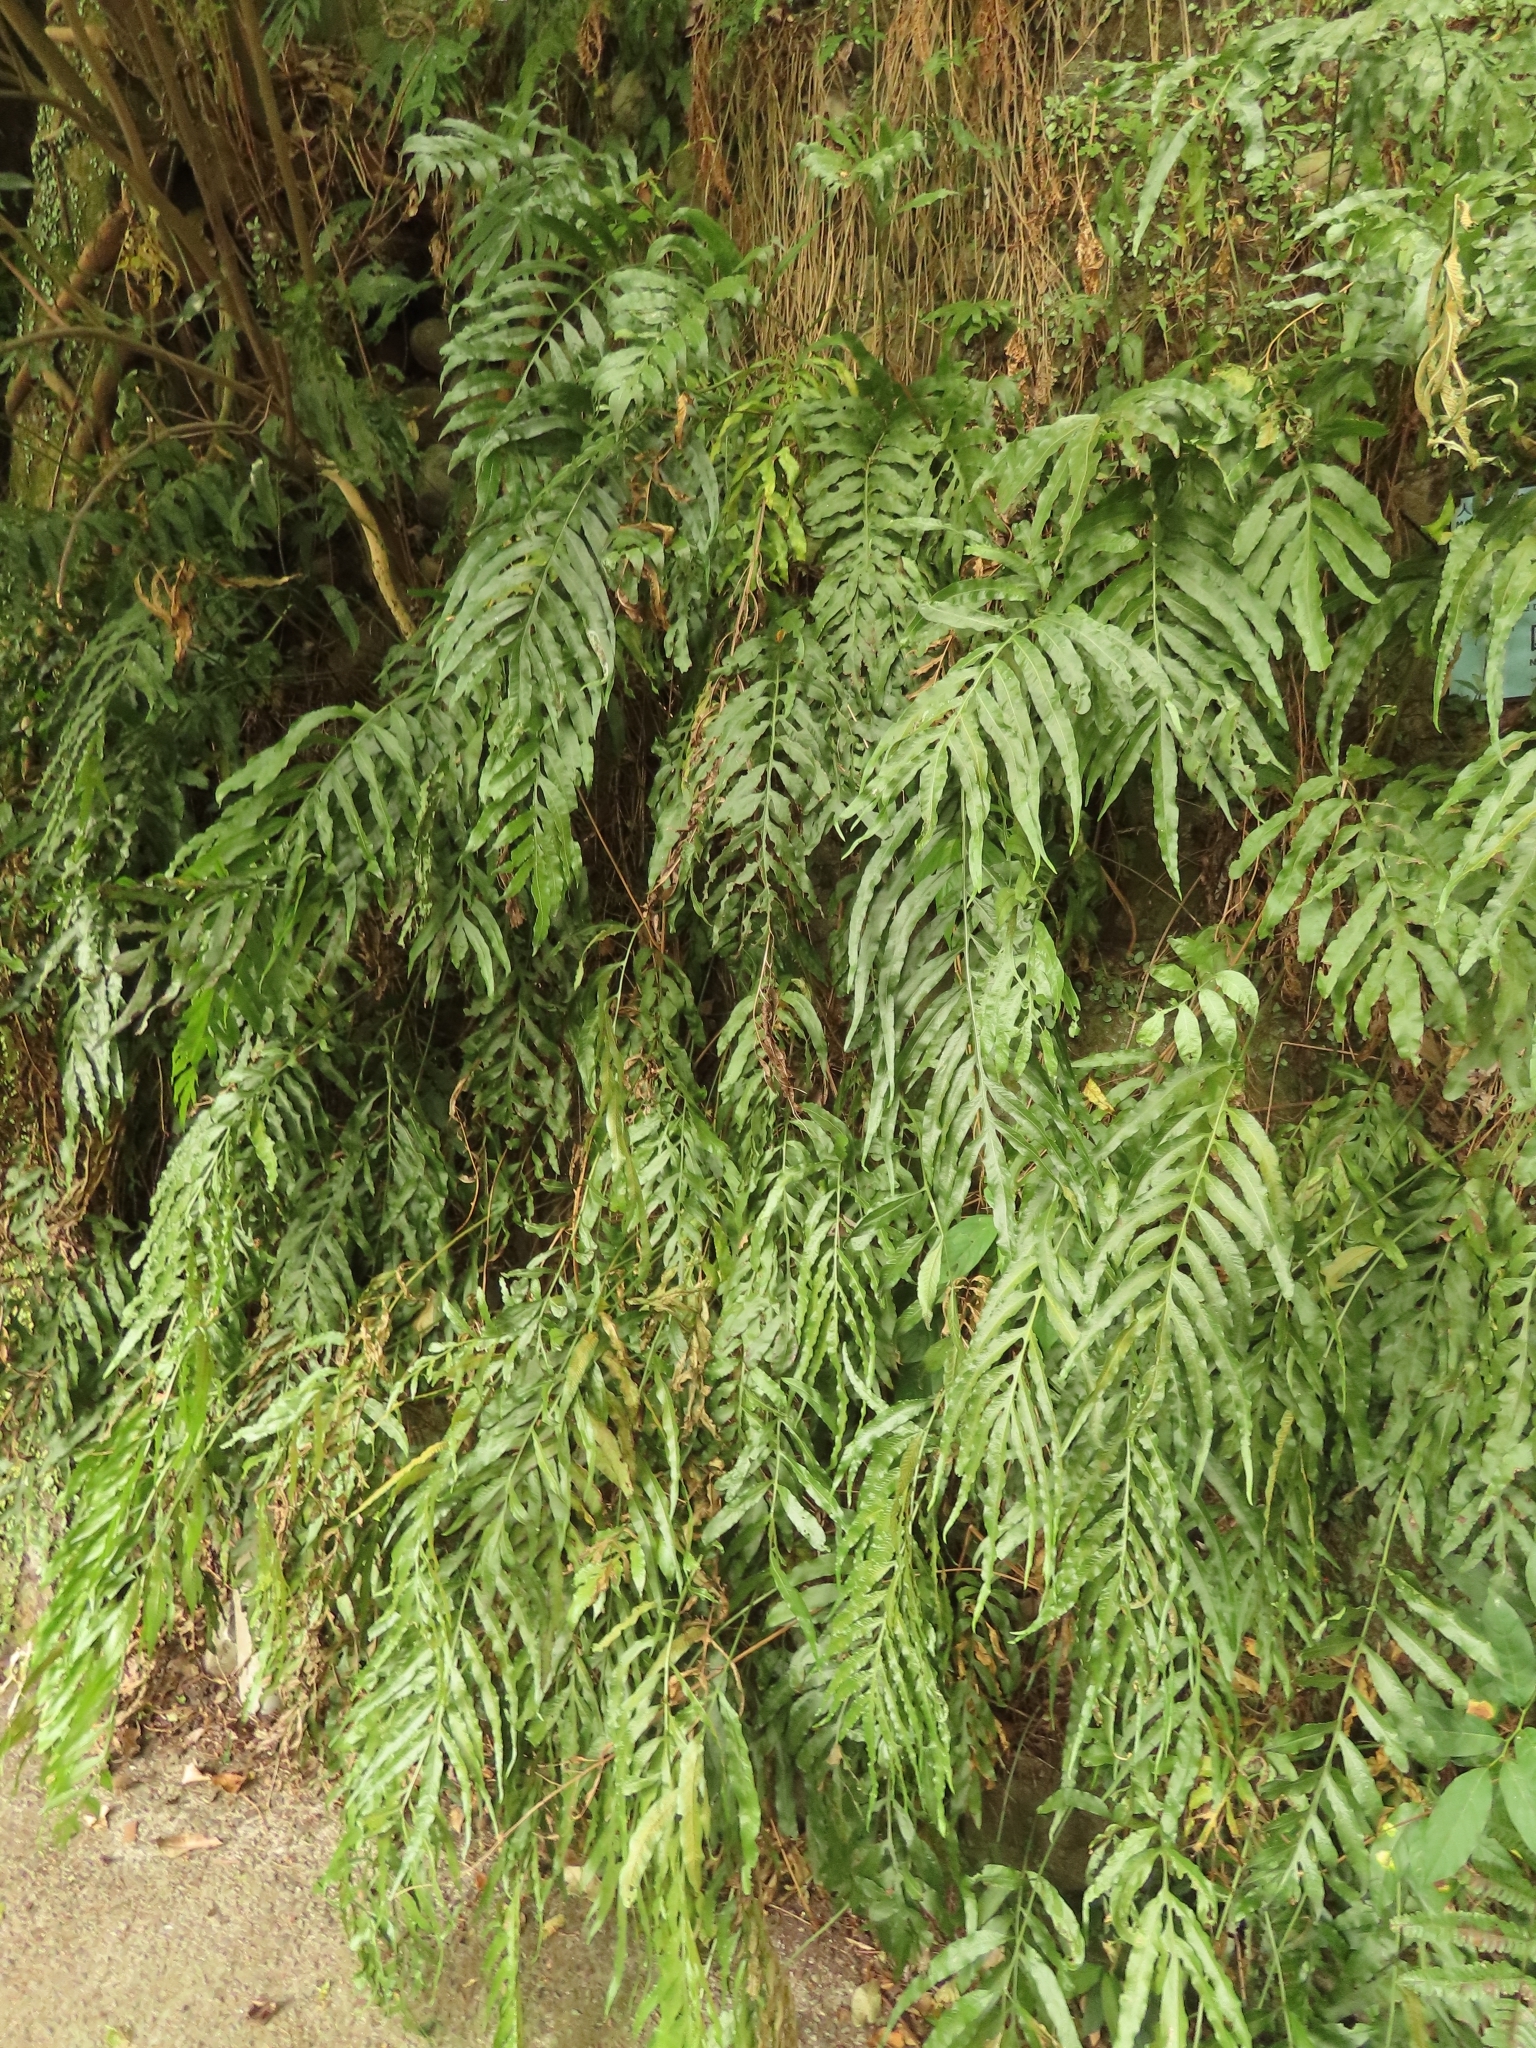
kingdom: Plantae
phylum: Tracheophyta
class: Polypodiopsida
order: Polypodiales
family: Polypodiaceae
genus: Leptochilus
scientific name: Leptochilus ellipticus
